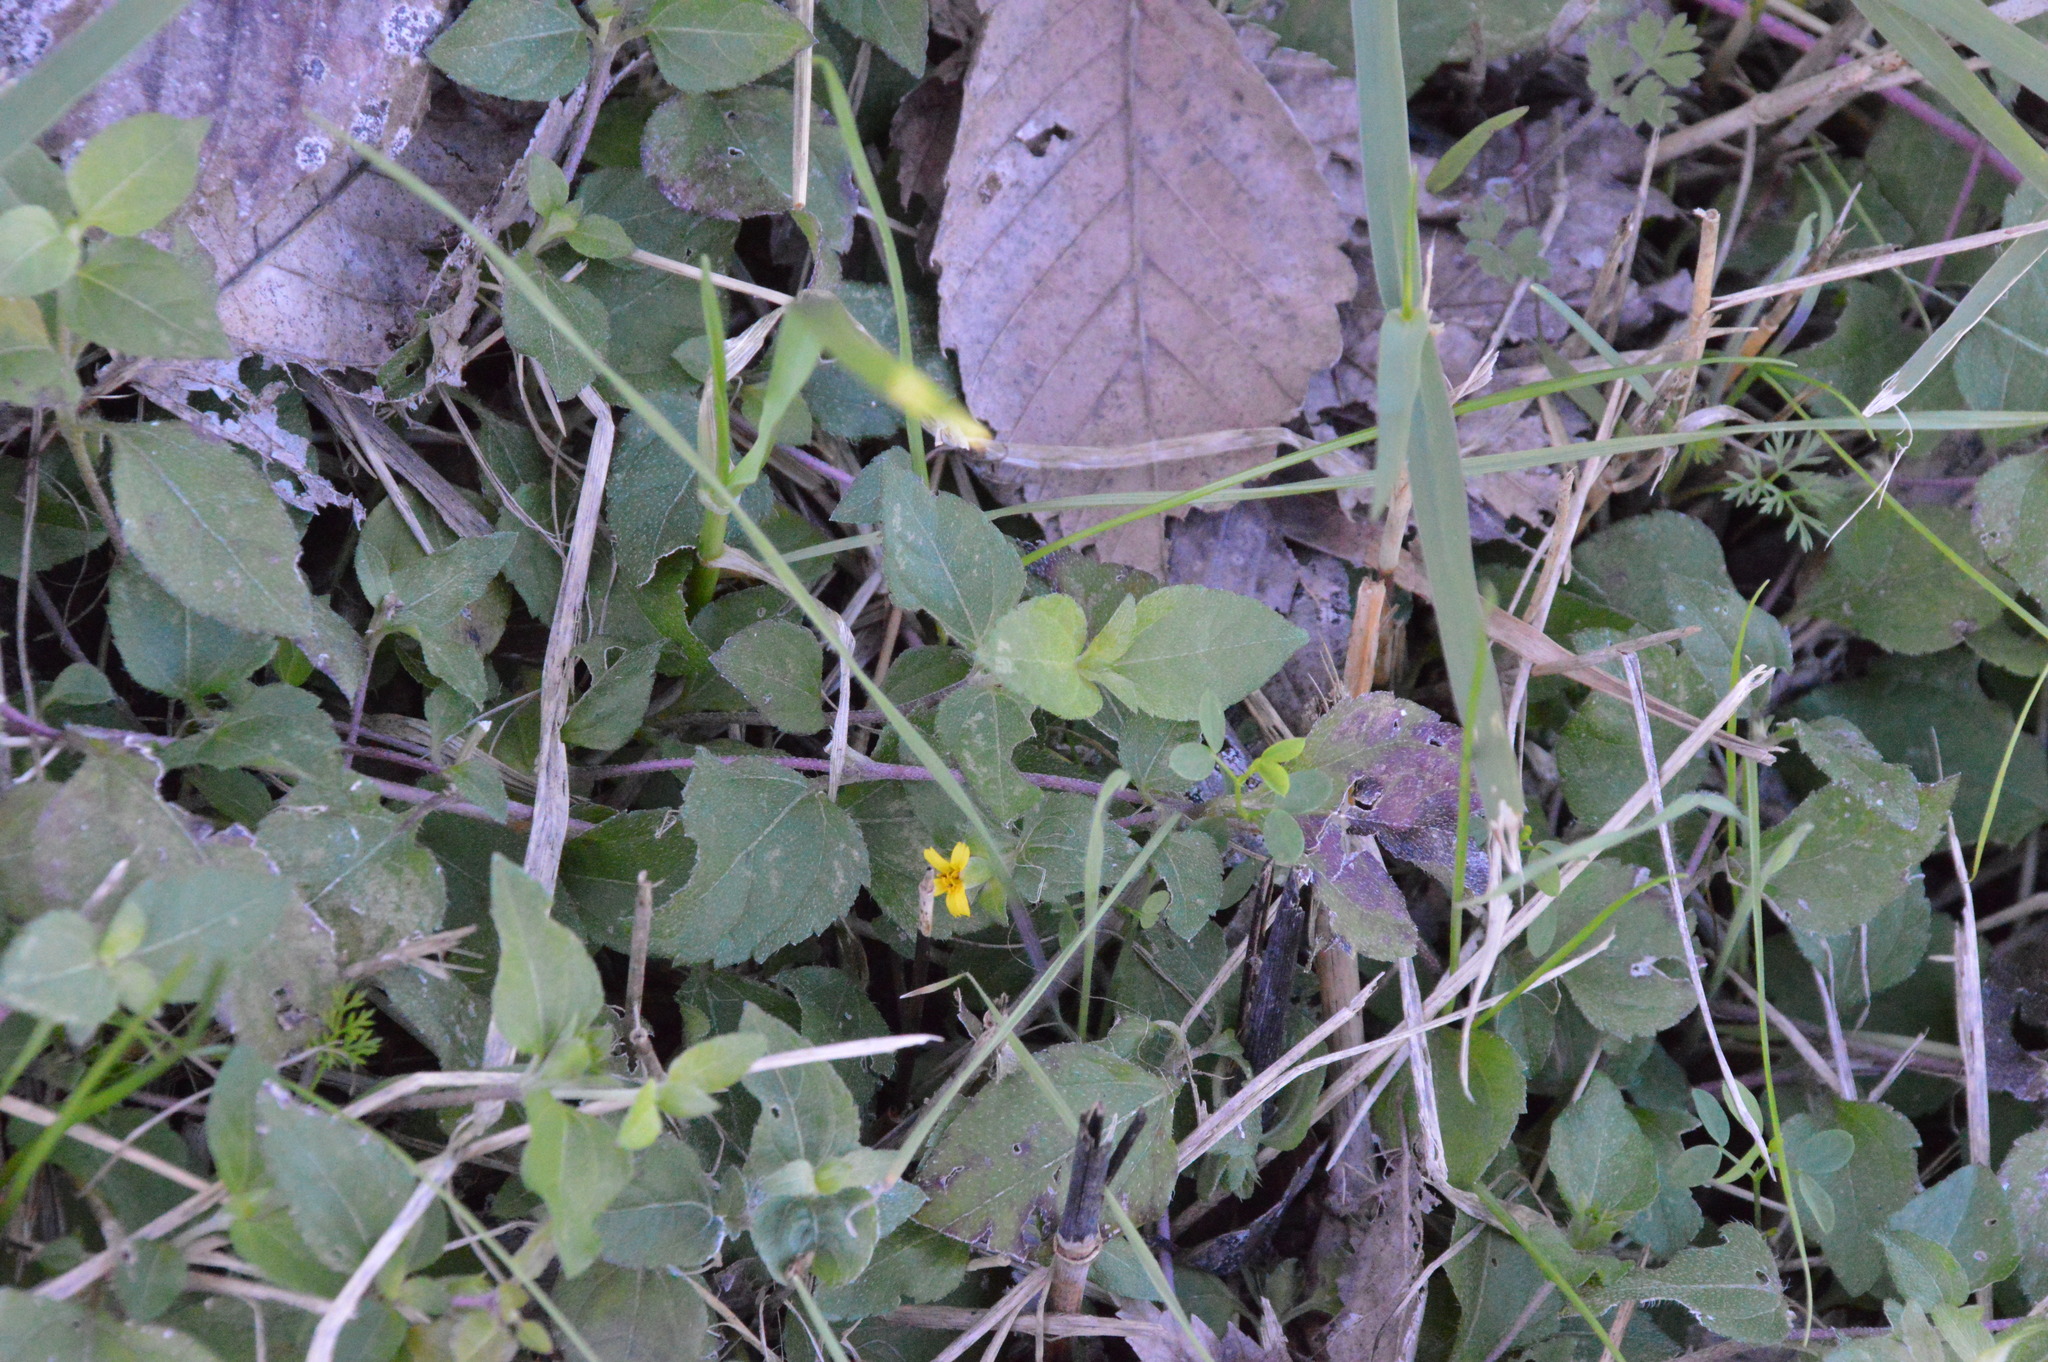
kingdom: Plantae
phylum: Tracheophyta
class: Magnoliopsida
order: Asterales
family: Asteraceae
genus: Calyptocarpus
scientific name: Calyptocarpus vialis
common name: Straggler daisy
